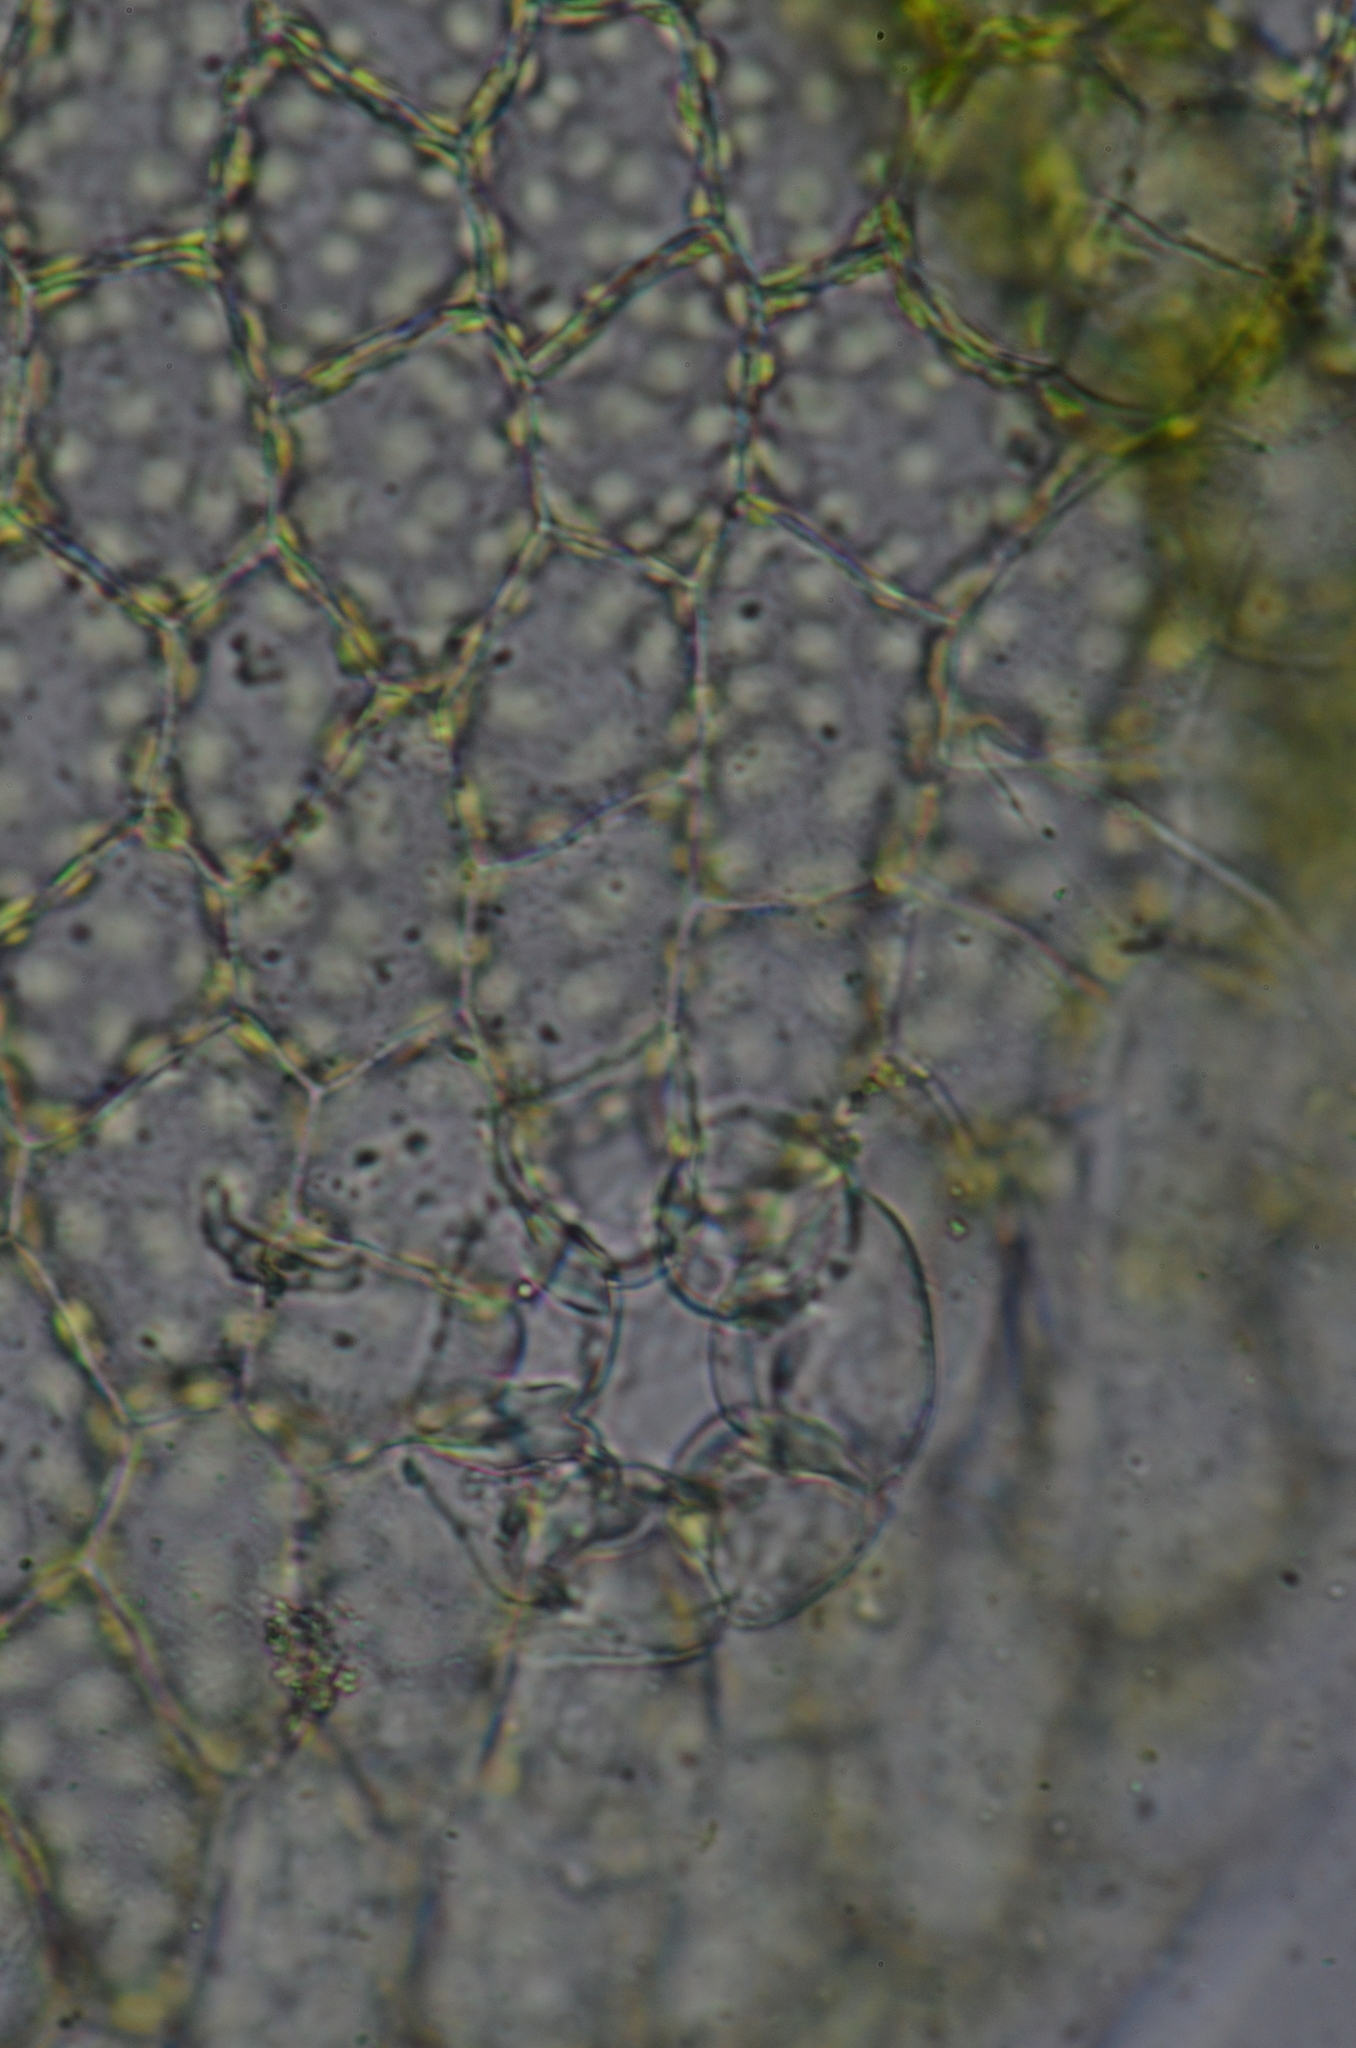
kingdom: Plantae
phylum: Marchantiophyta
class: Marchantiopsida
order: Marchantiales
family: Cleveaceae
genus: Clevea
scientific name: Clevea hyalina
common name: Hyaline liverwort
